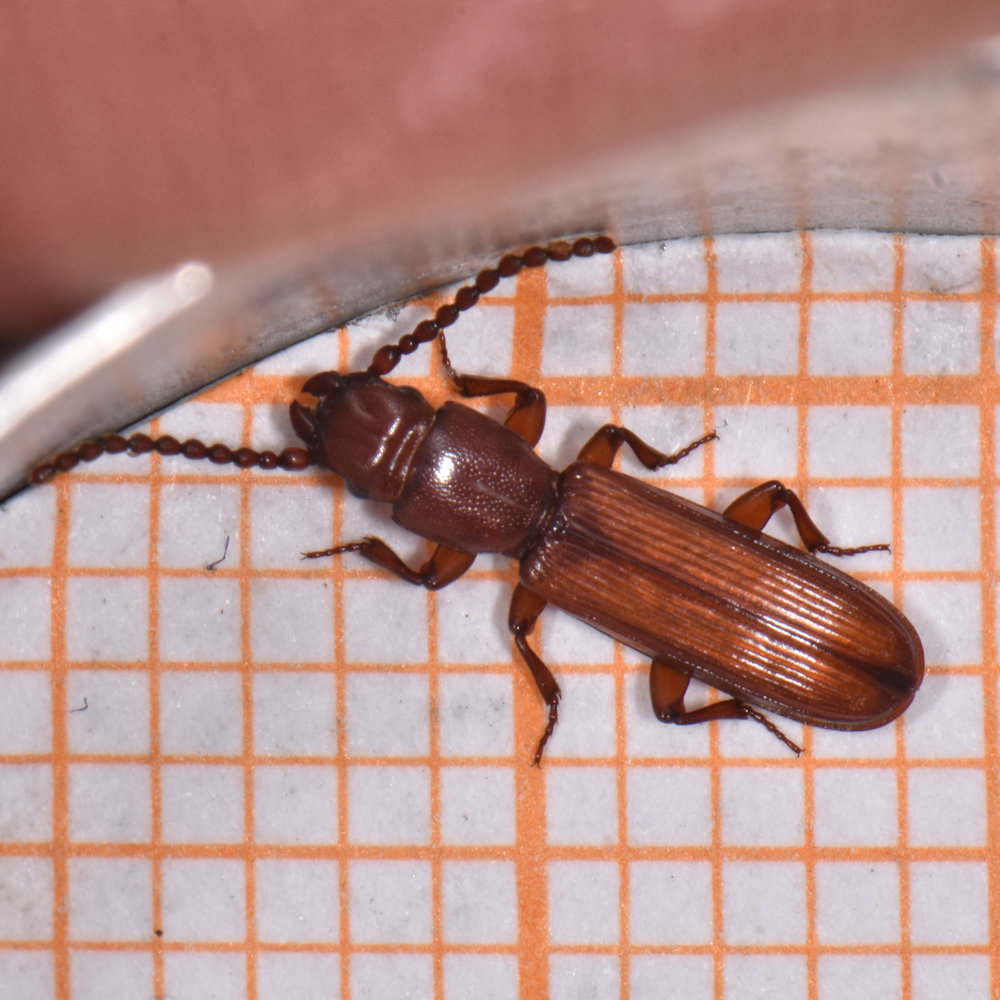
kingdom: Animalia
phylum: Arthropoda
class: Insecta
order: Coleoptera
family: Passandridae
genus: Catogenus
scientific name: Catogenus rufus
